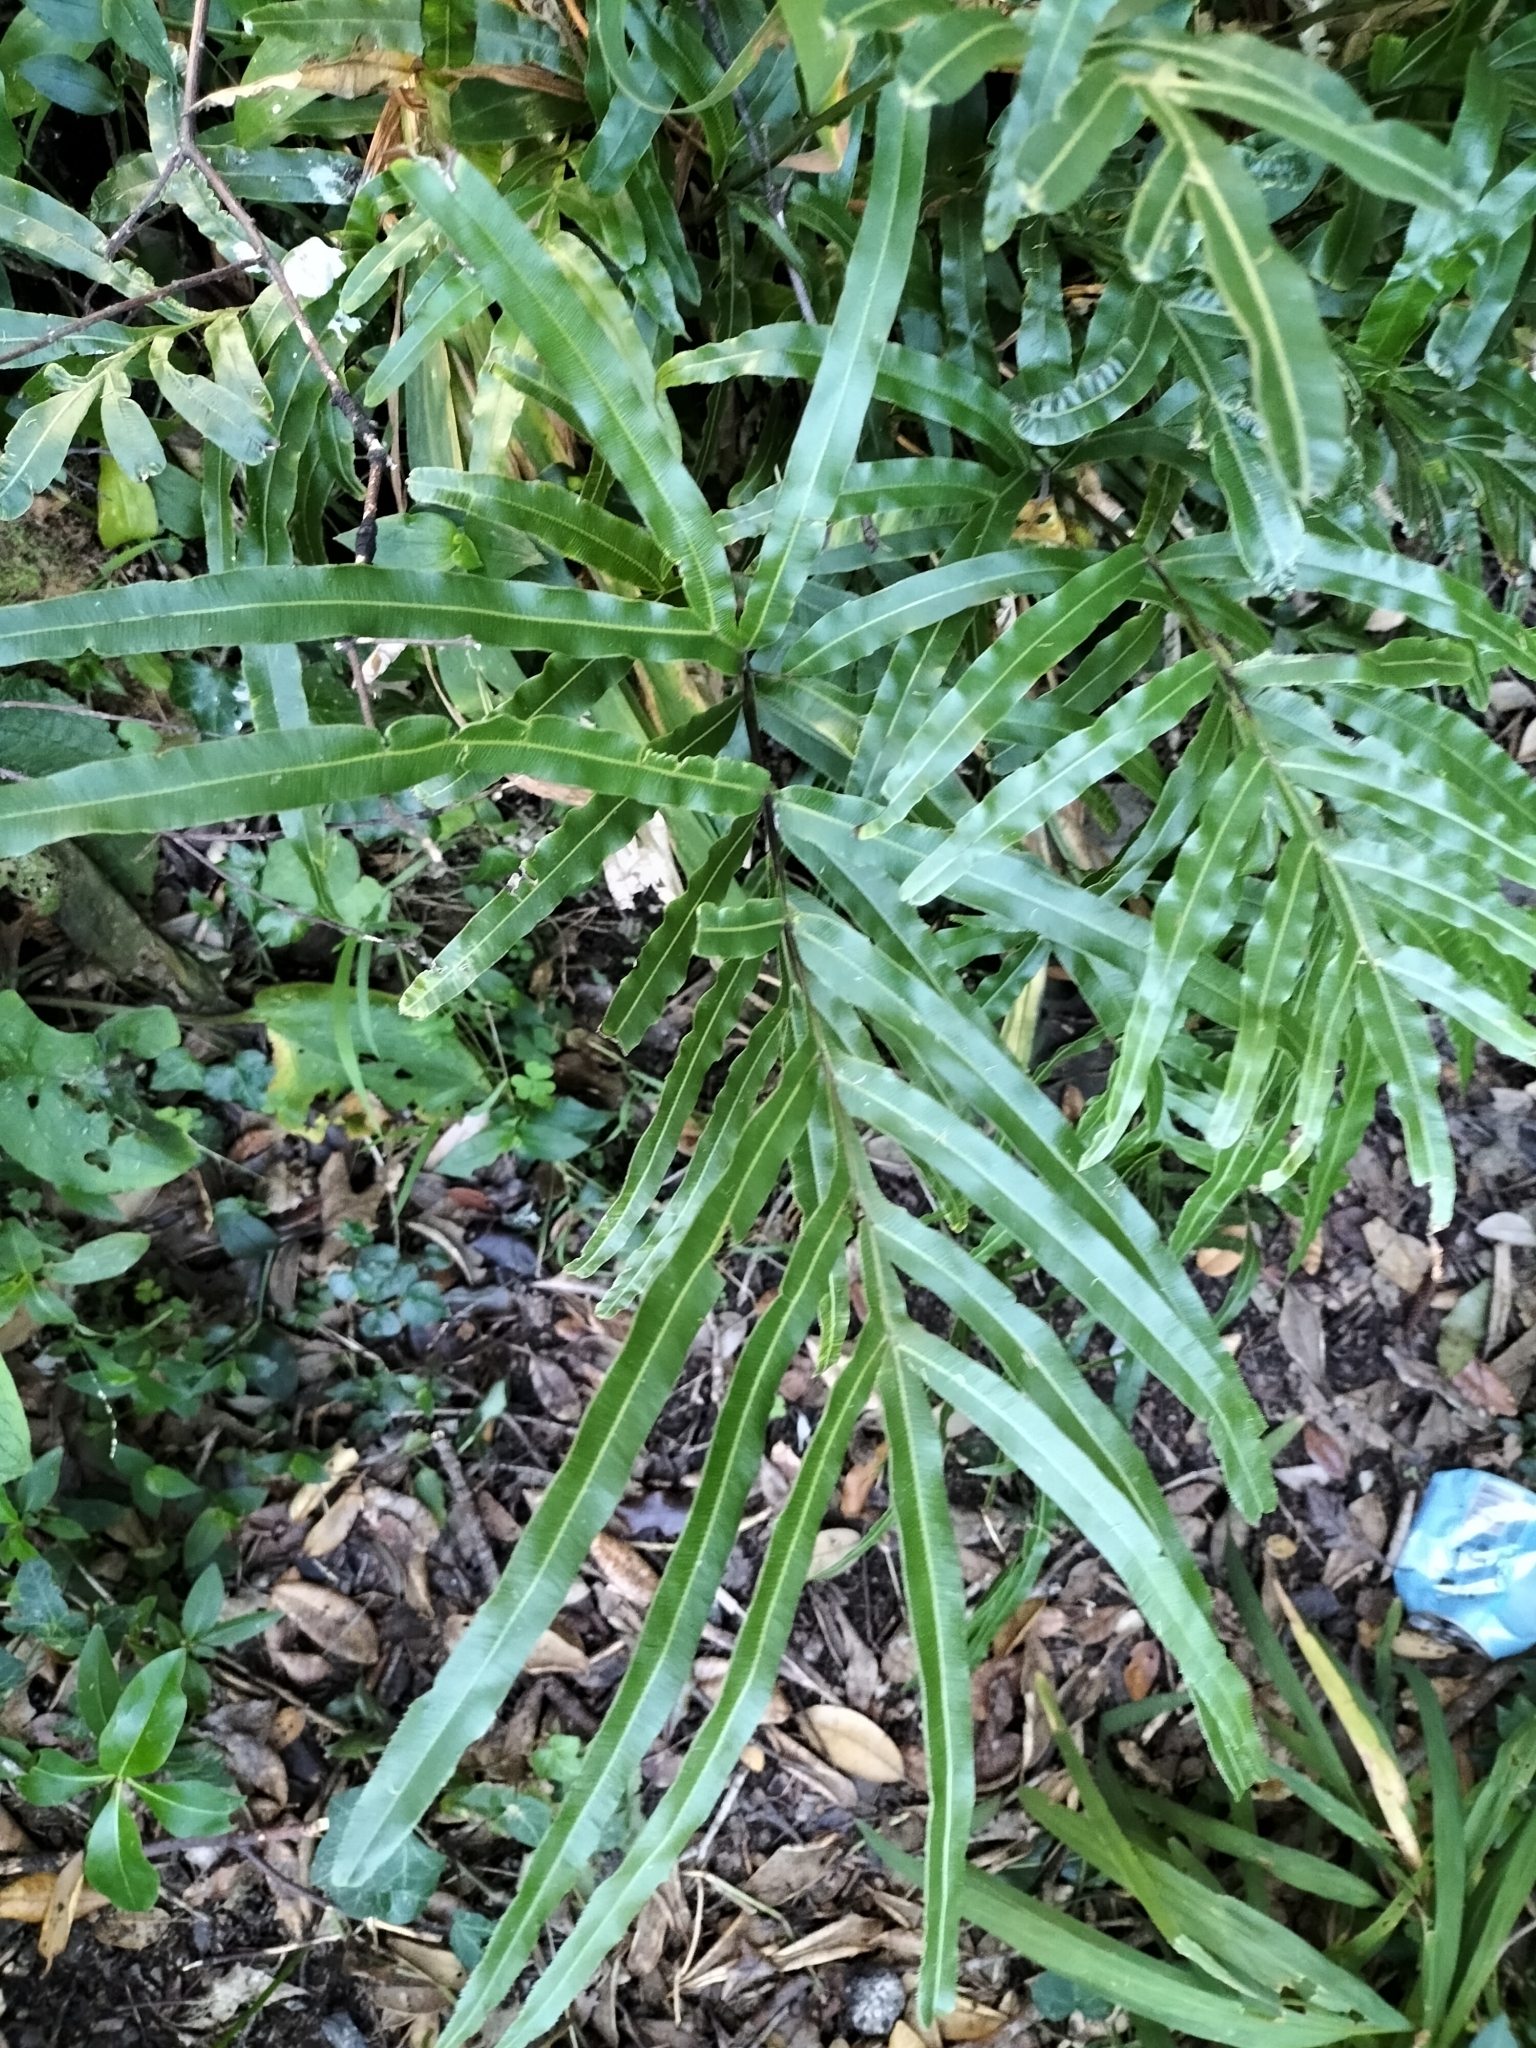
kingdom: Plantae
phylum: Tracheophyta
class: Polypodiopsida
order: Polypodiales
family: Pteridaceae
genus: Pteris
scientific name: Pteris cretica
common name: Ribbon fern
